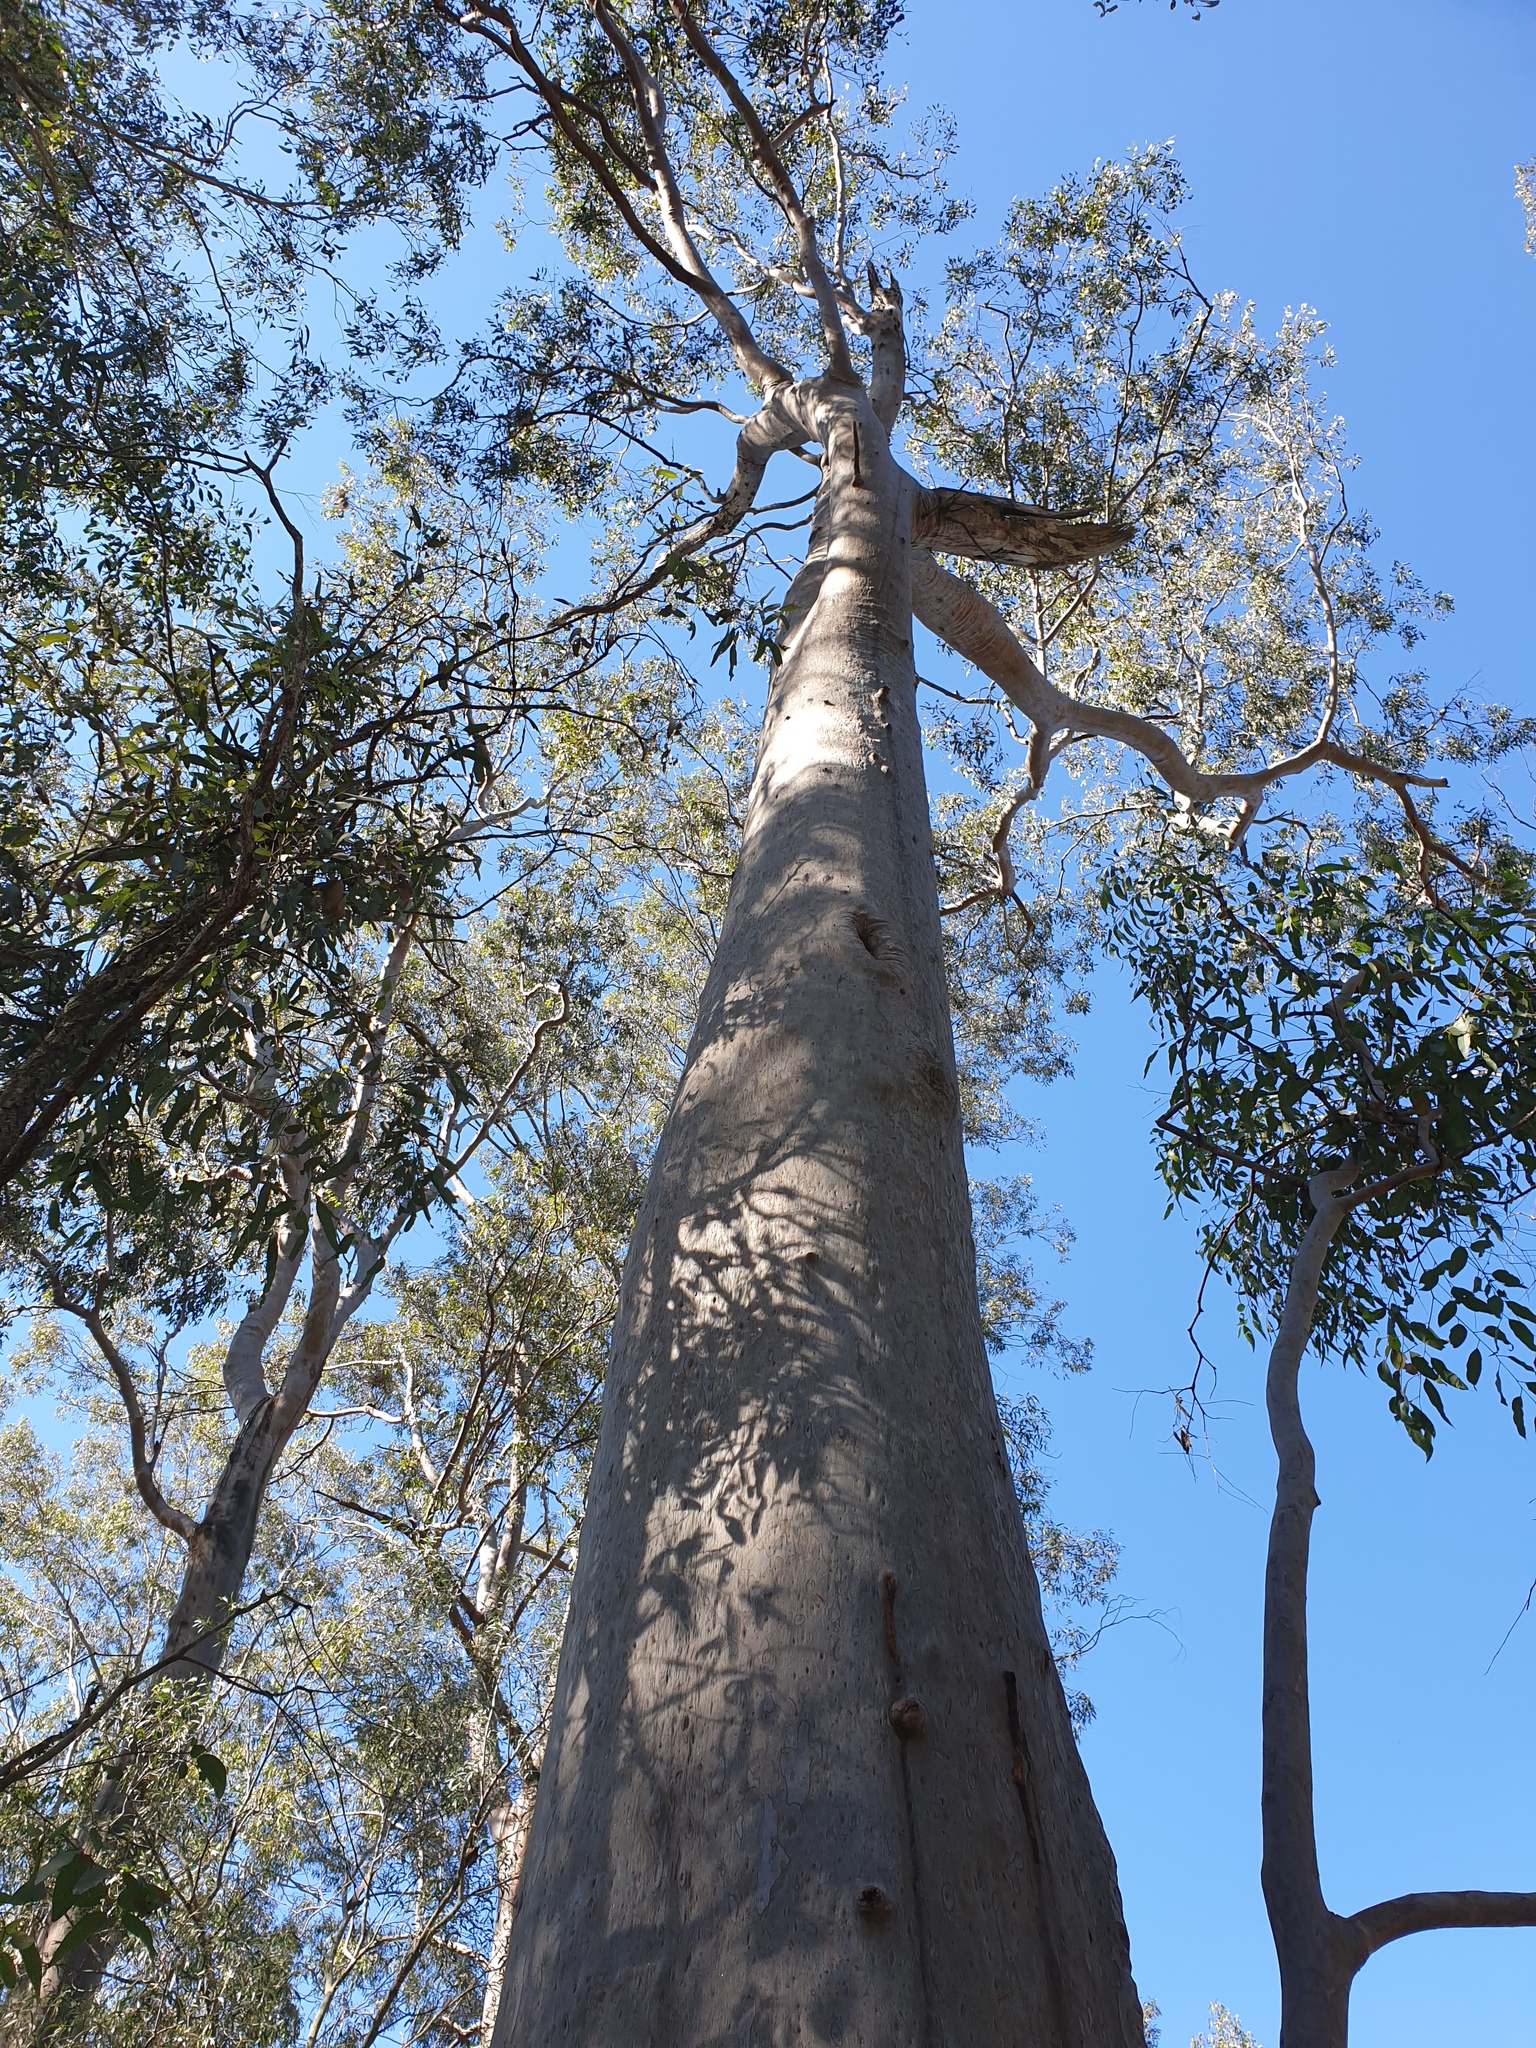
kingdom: Plantae
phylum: Tracheophyta
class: Magnoliopsida
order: Myrtales
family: Myrtaceae
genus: Corymbia
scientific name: Corymbia citriodora
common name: Lemonscented gum
